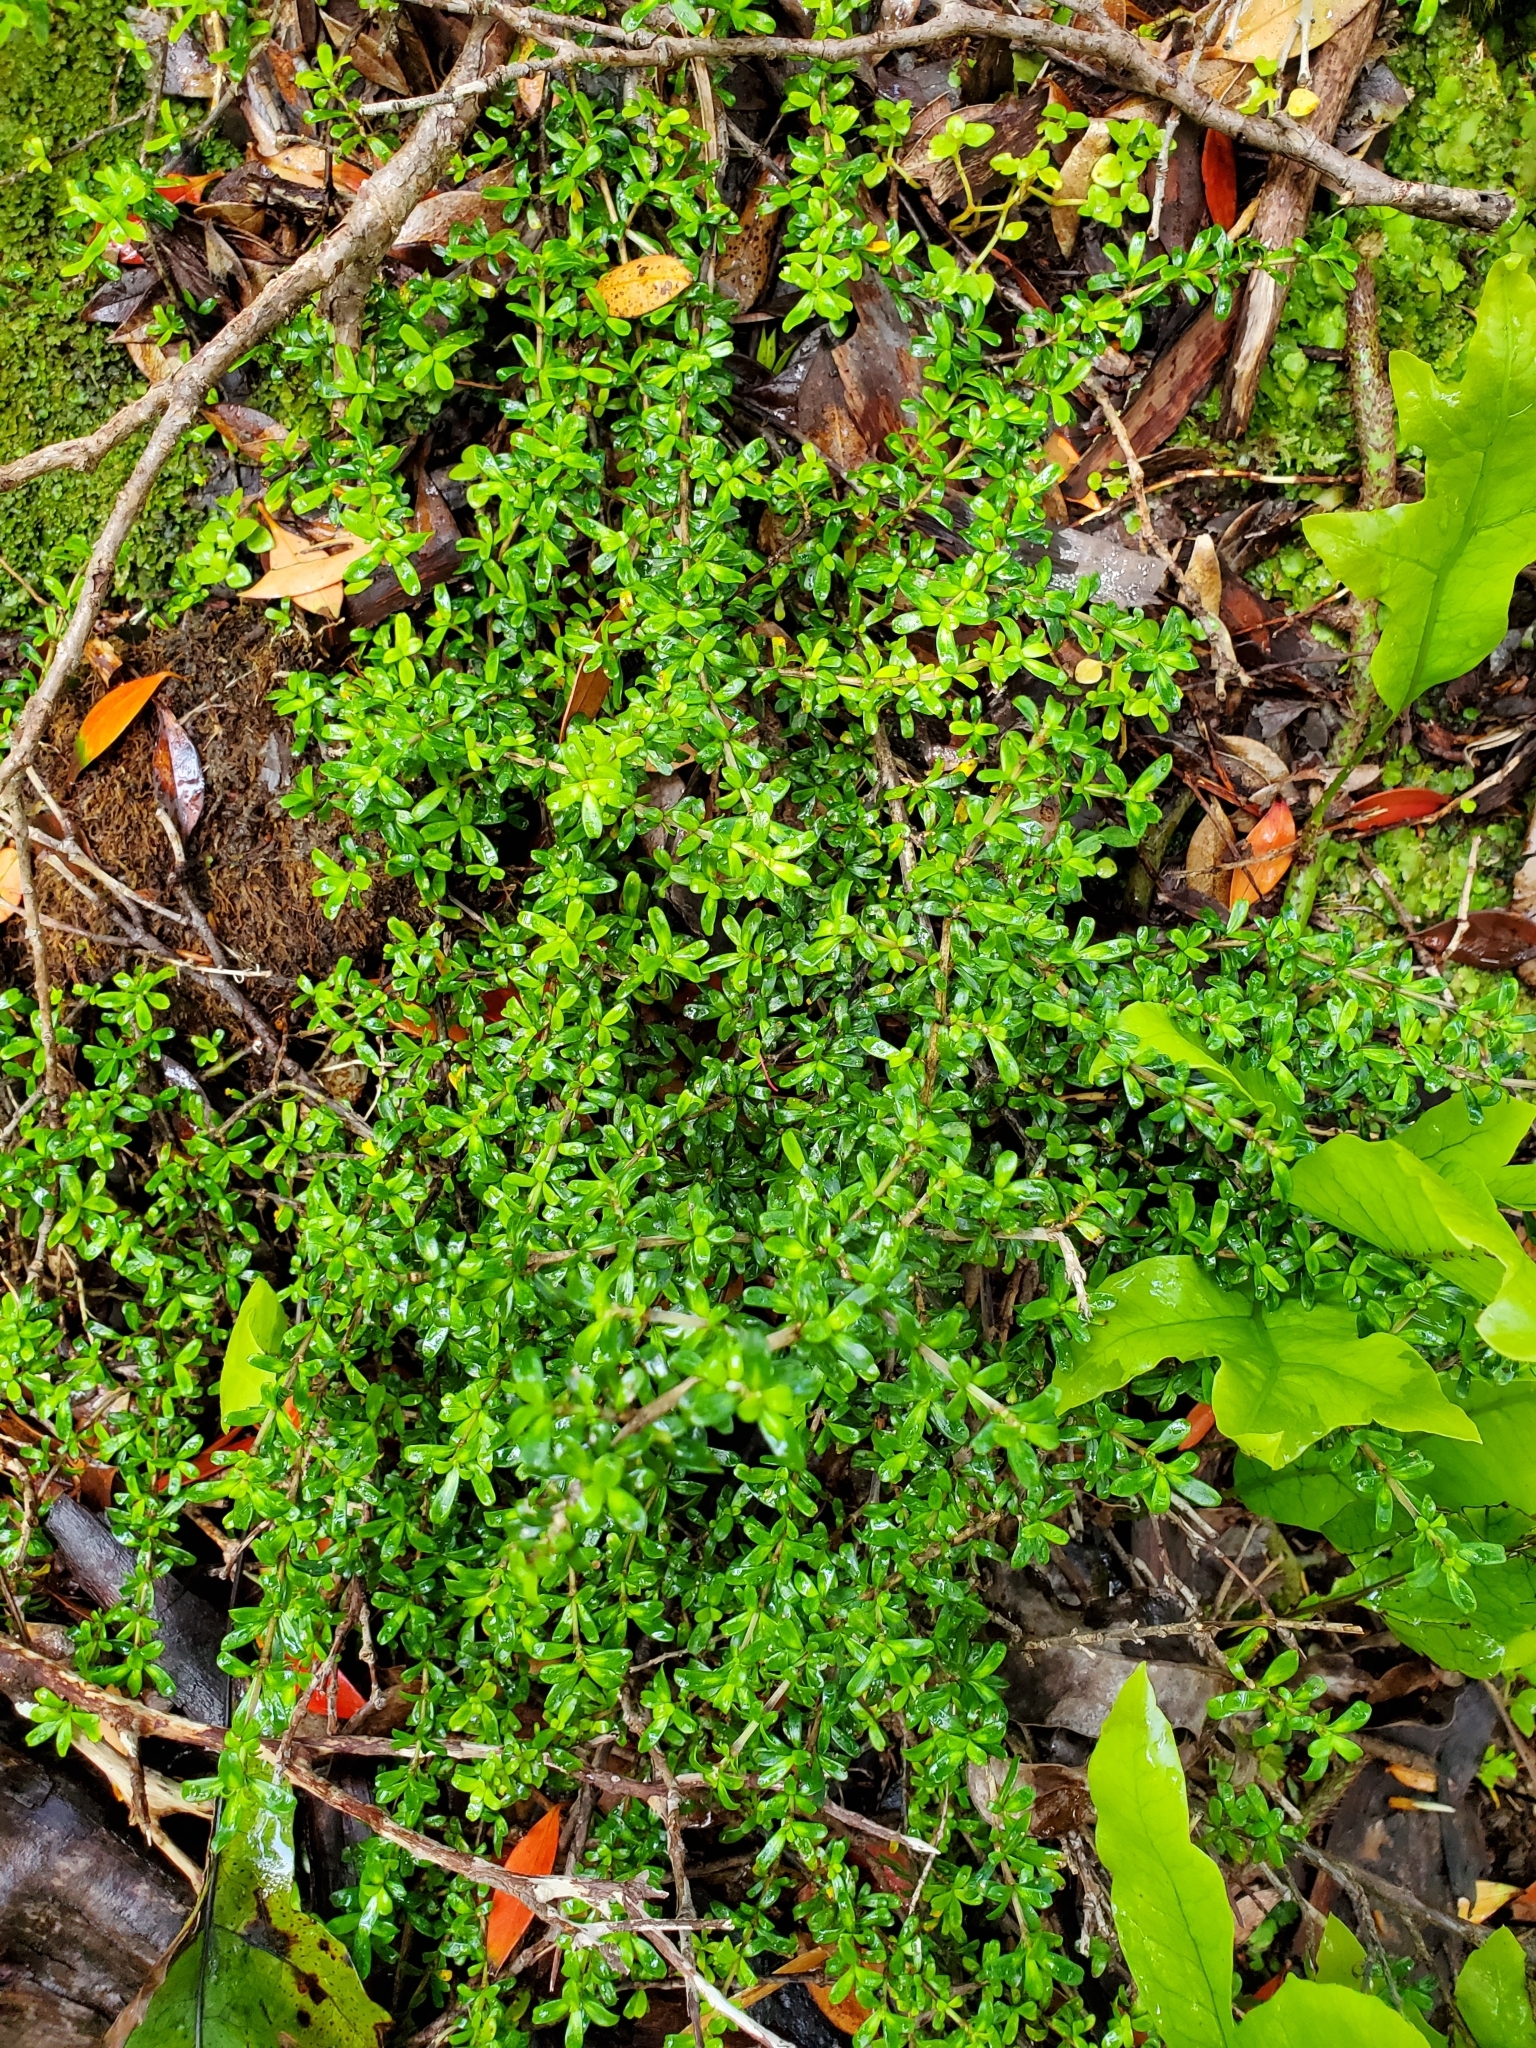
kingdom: Plantae
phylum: Tracheophyta
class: Magnoliopsida
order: Gentianales
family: Rubiaceae
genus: Coprosma
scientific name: Coprosma cuneata
